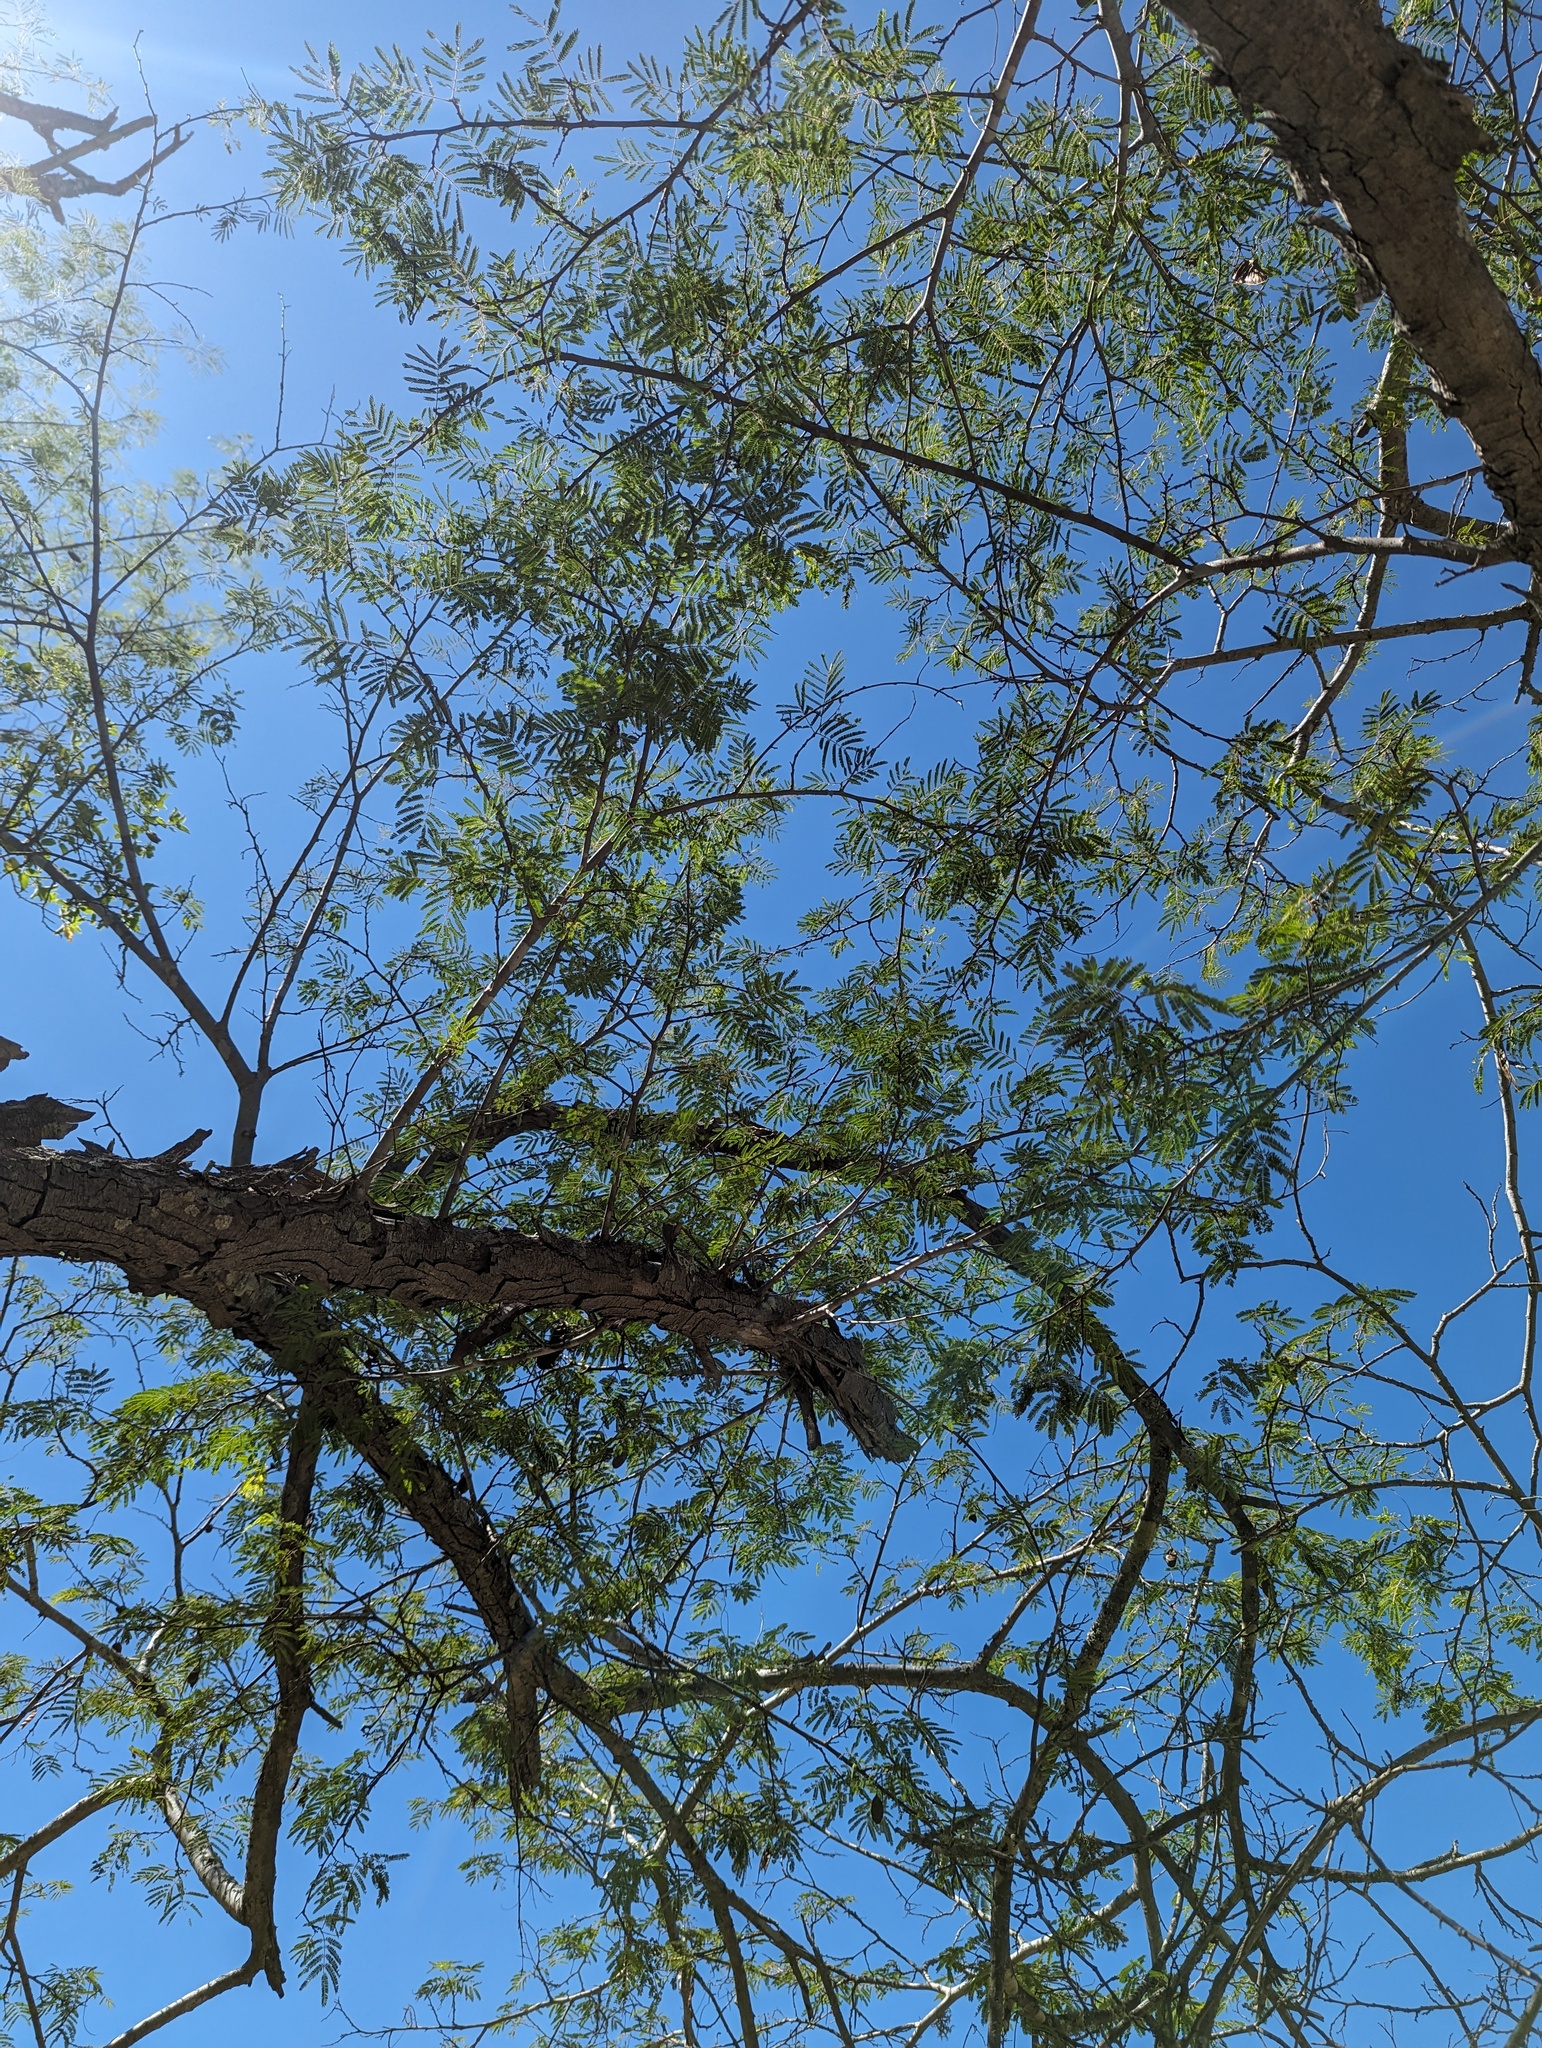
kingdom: Plantae
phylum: Tracheophyta
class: Magnoliopsida
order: Fabales
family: Fabaceae
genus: Lysiloma
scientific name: Lysiloma divaricatum
